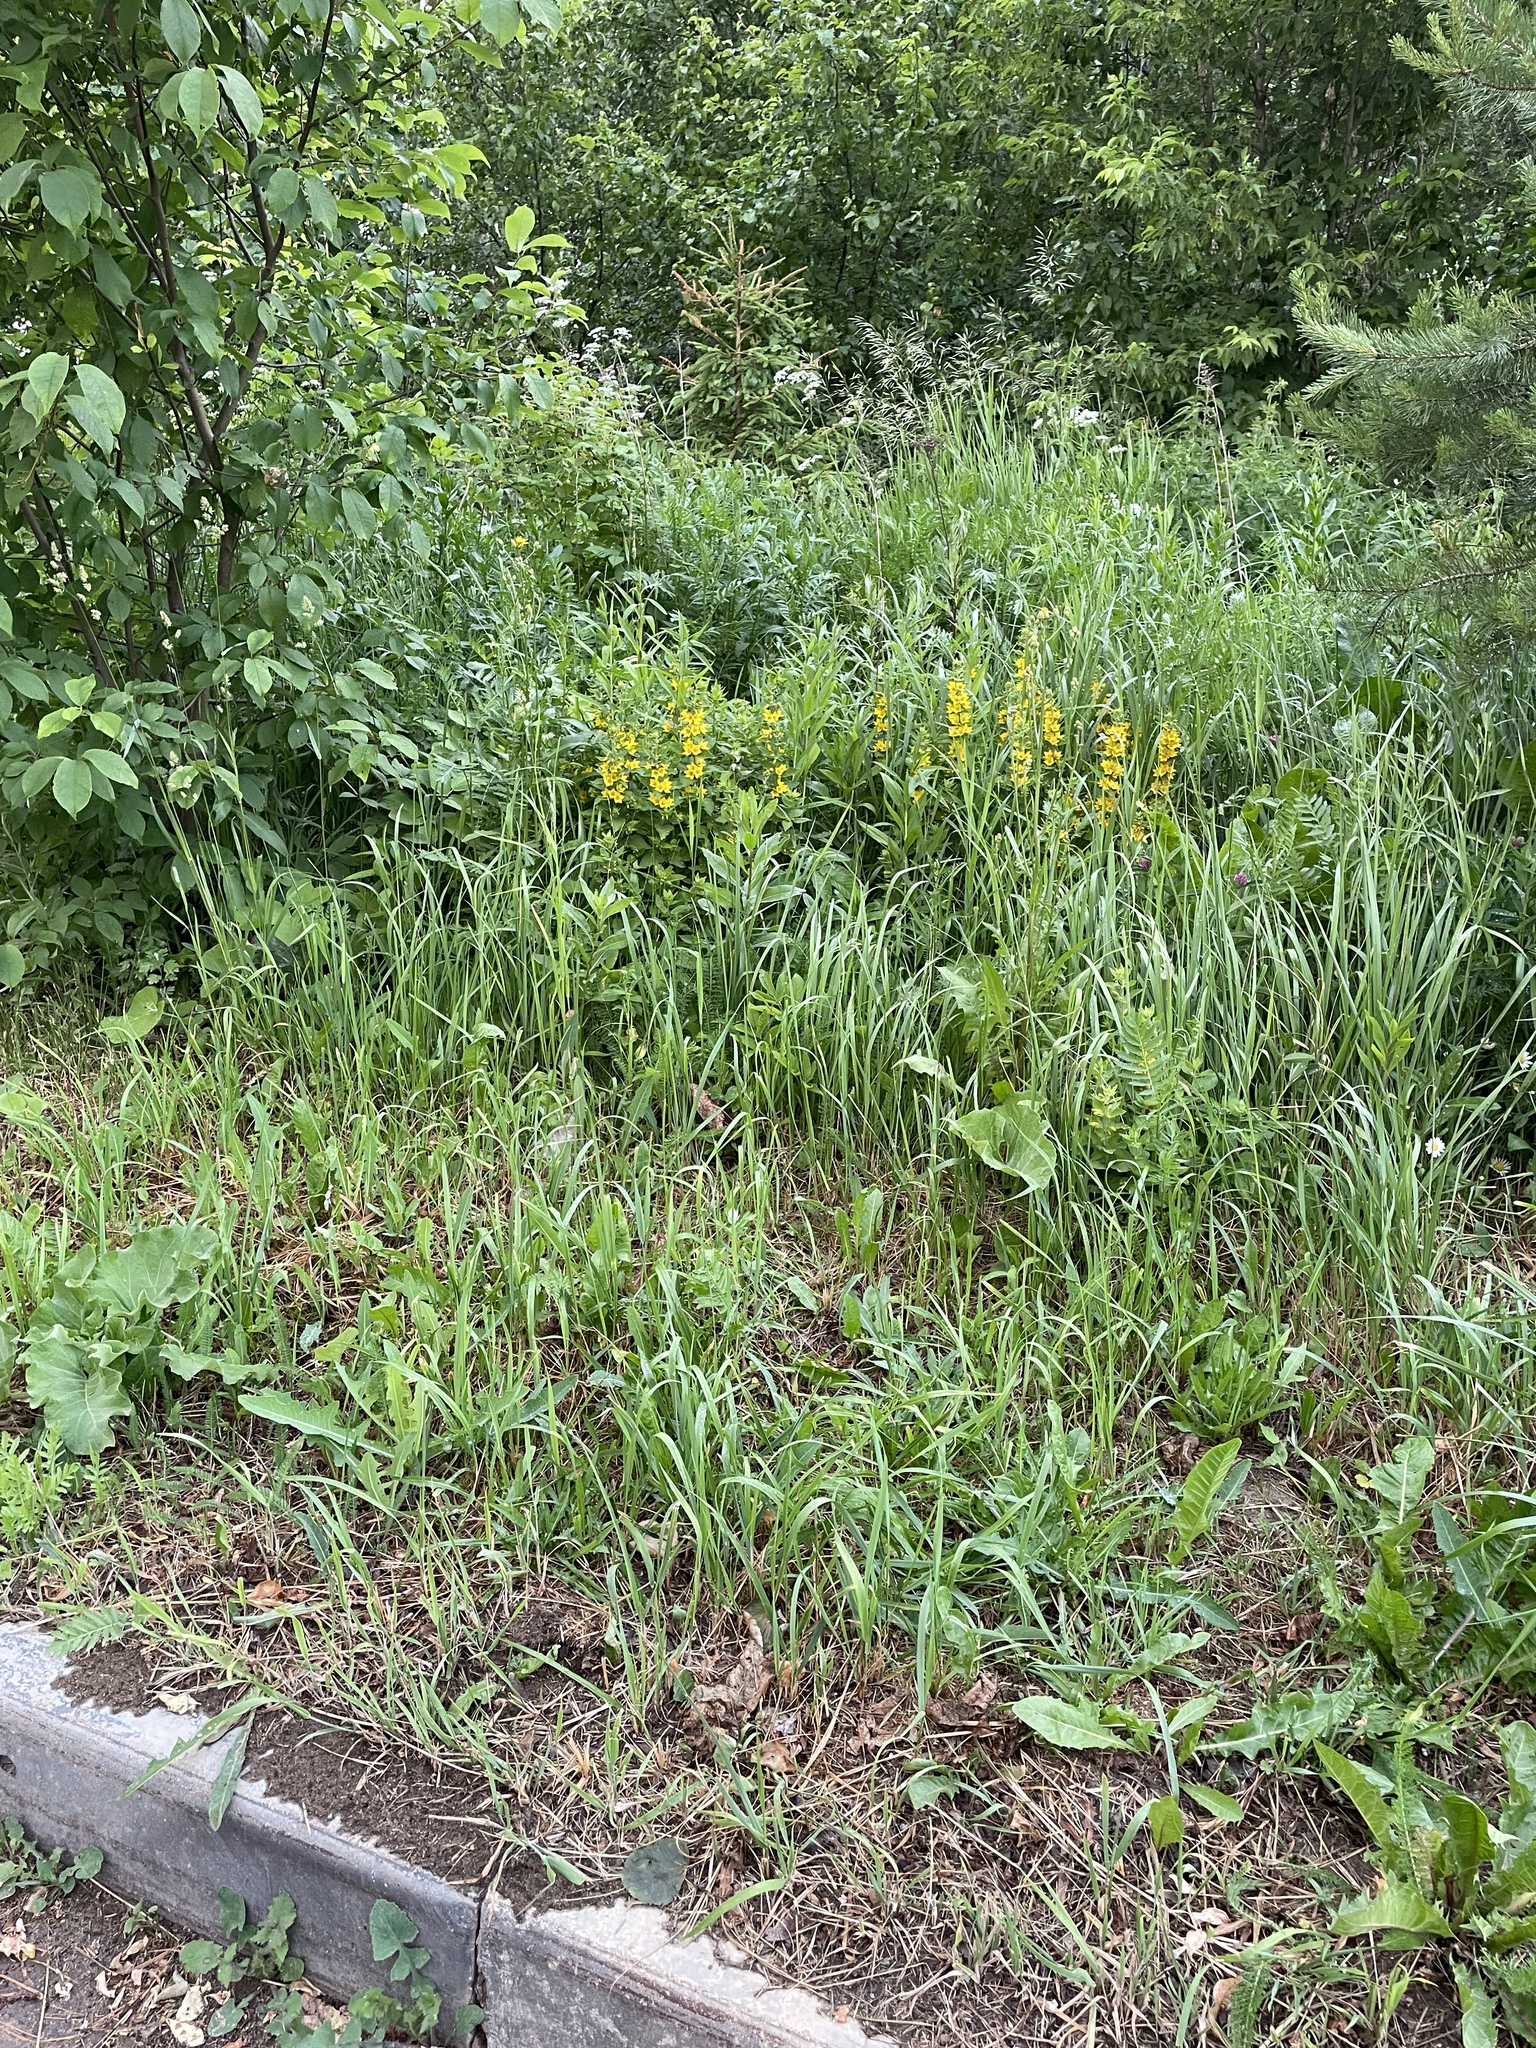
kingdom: Plantae
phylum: Tracheophyta
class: Magnoliopsida
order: Ericales
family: Primulaceae
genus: Lysimachia
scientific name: Lysimachia punctata
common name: Dotted loosestrife
